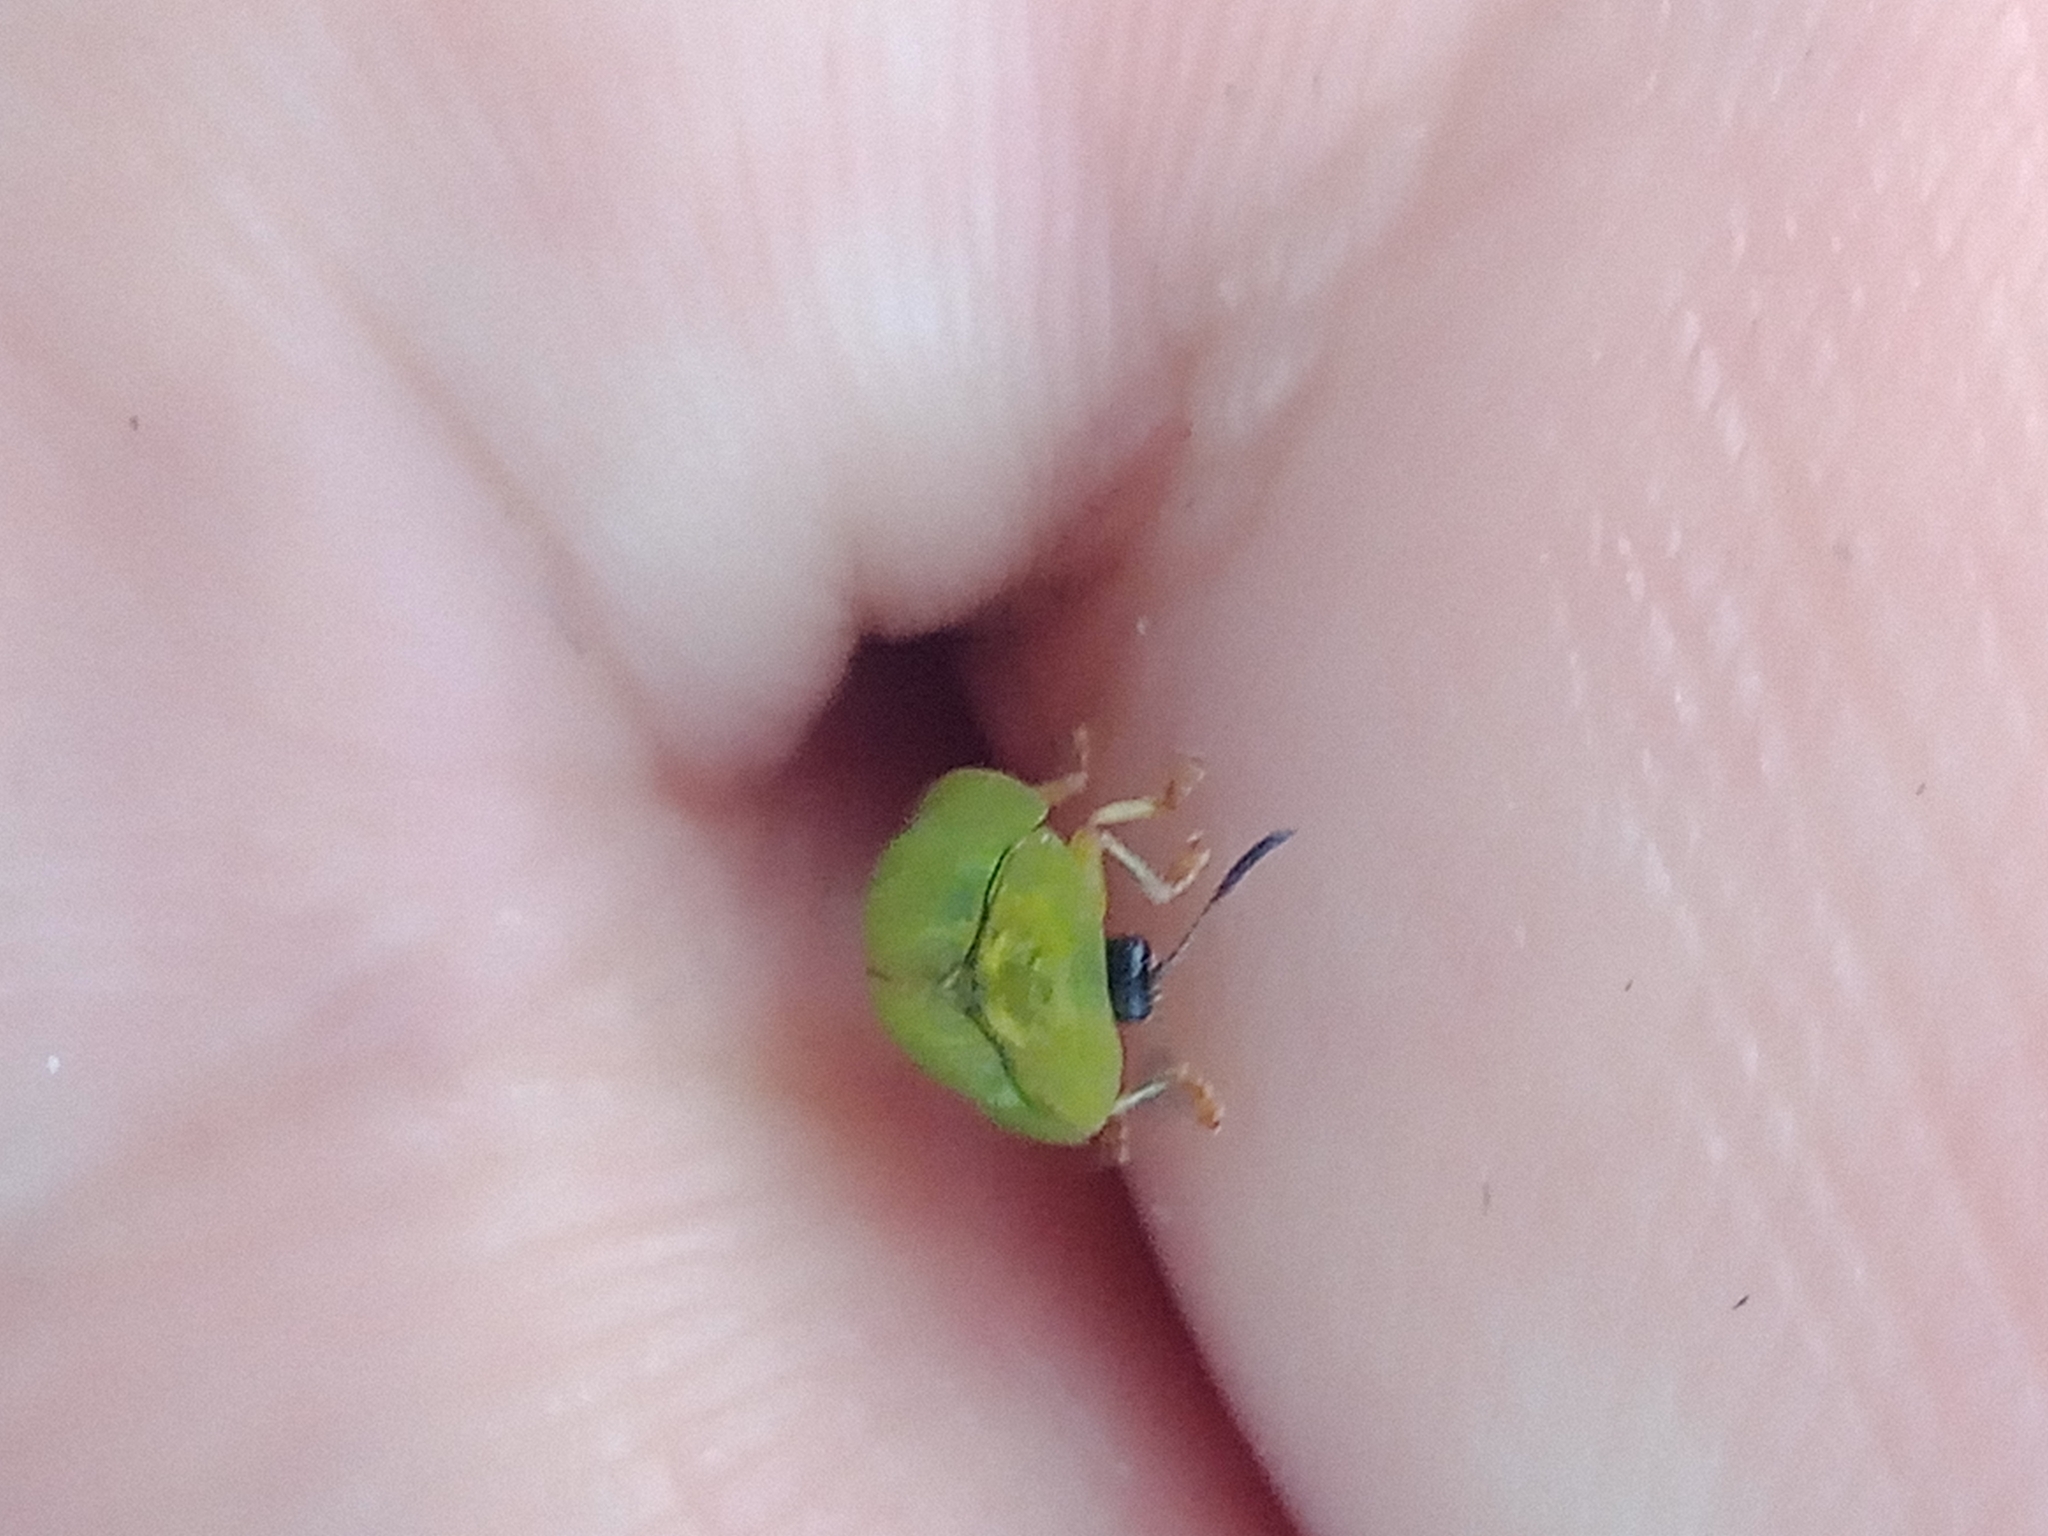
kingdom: Animalia
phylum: Arthropoda
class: Insecta
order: Coleoptera
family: Chrysomelidae
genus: Cassida
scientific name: Cassida stigmatica
